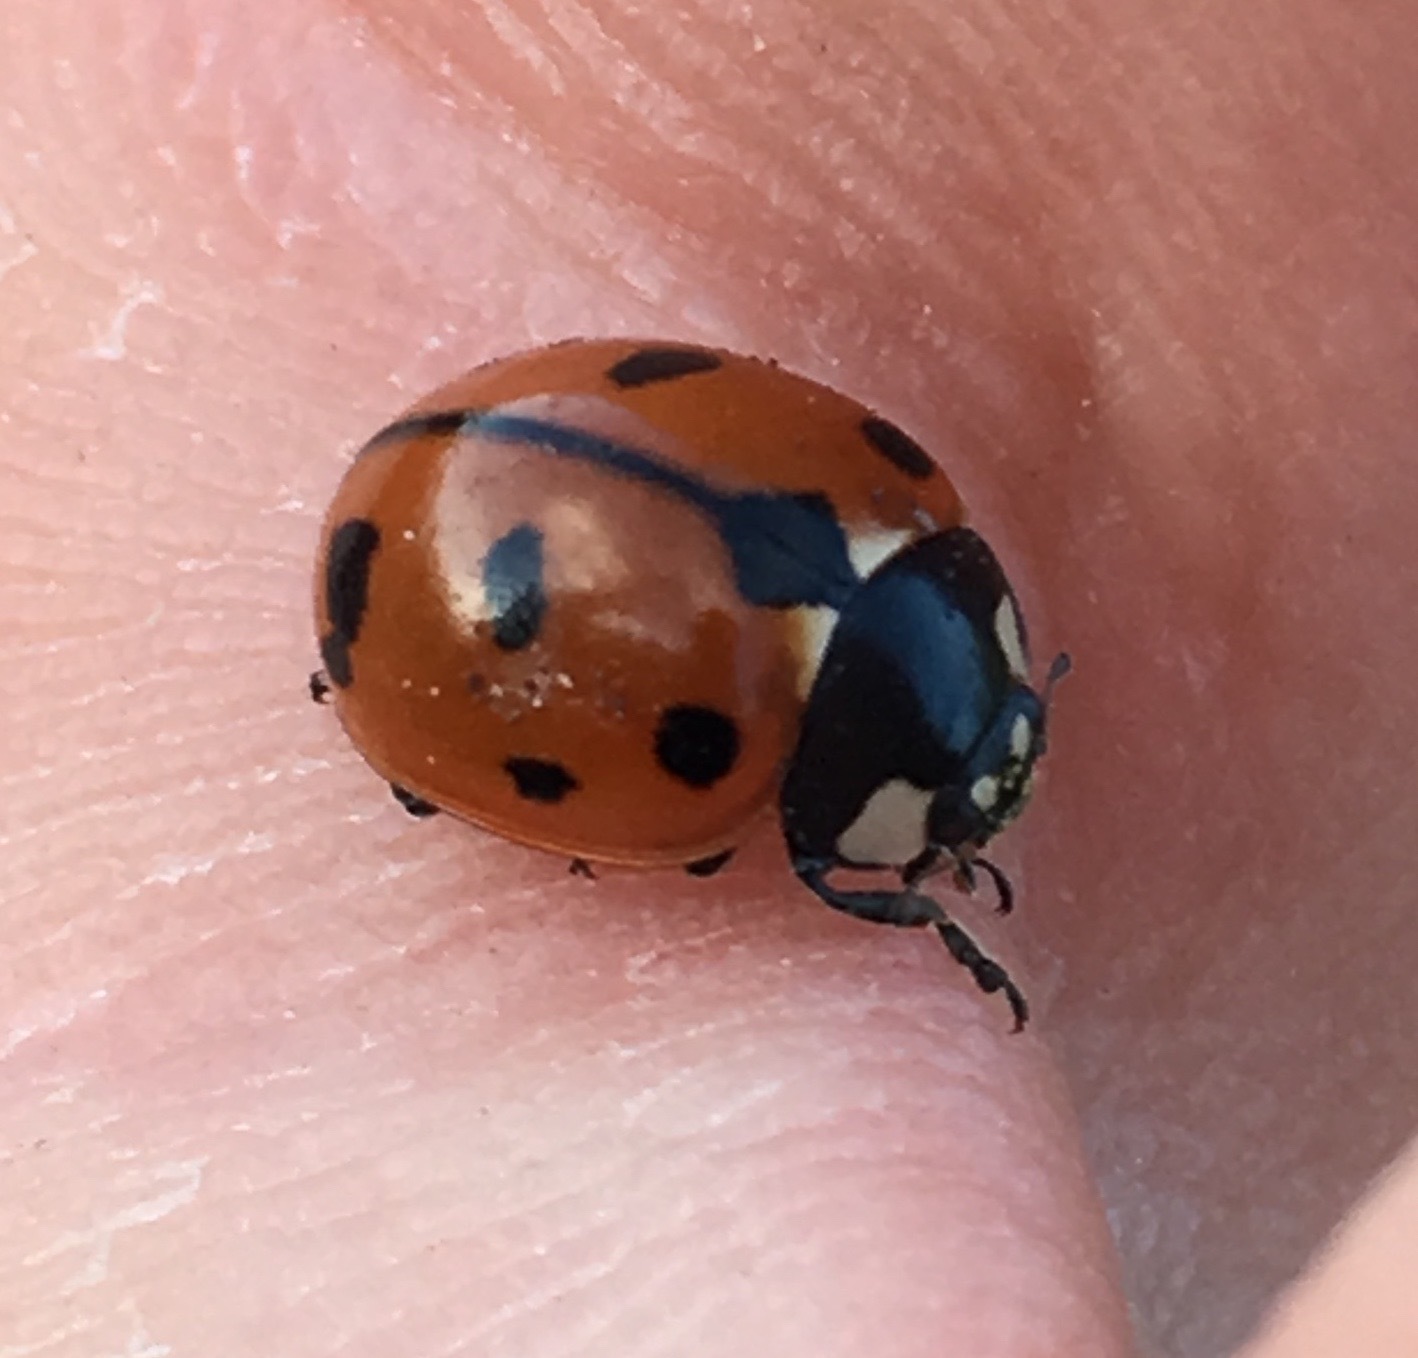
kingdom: Animalia
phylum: Arthropoda
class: Insecta
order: Coleoptera
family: Coccinellidae
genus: Coccinella
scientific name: Coccinella californica
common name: Lady beetle
